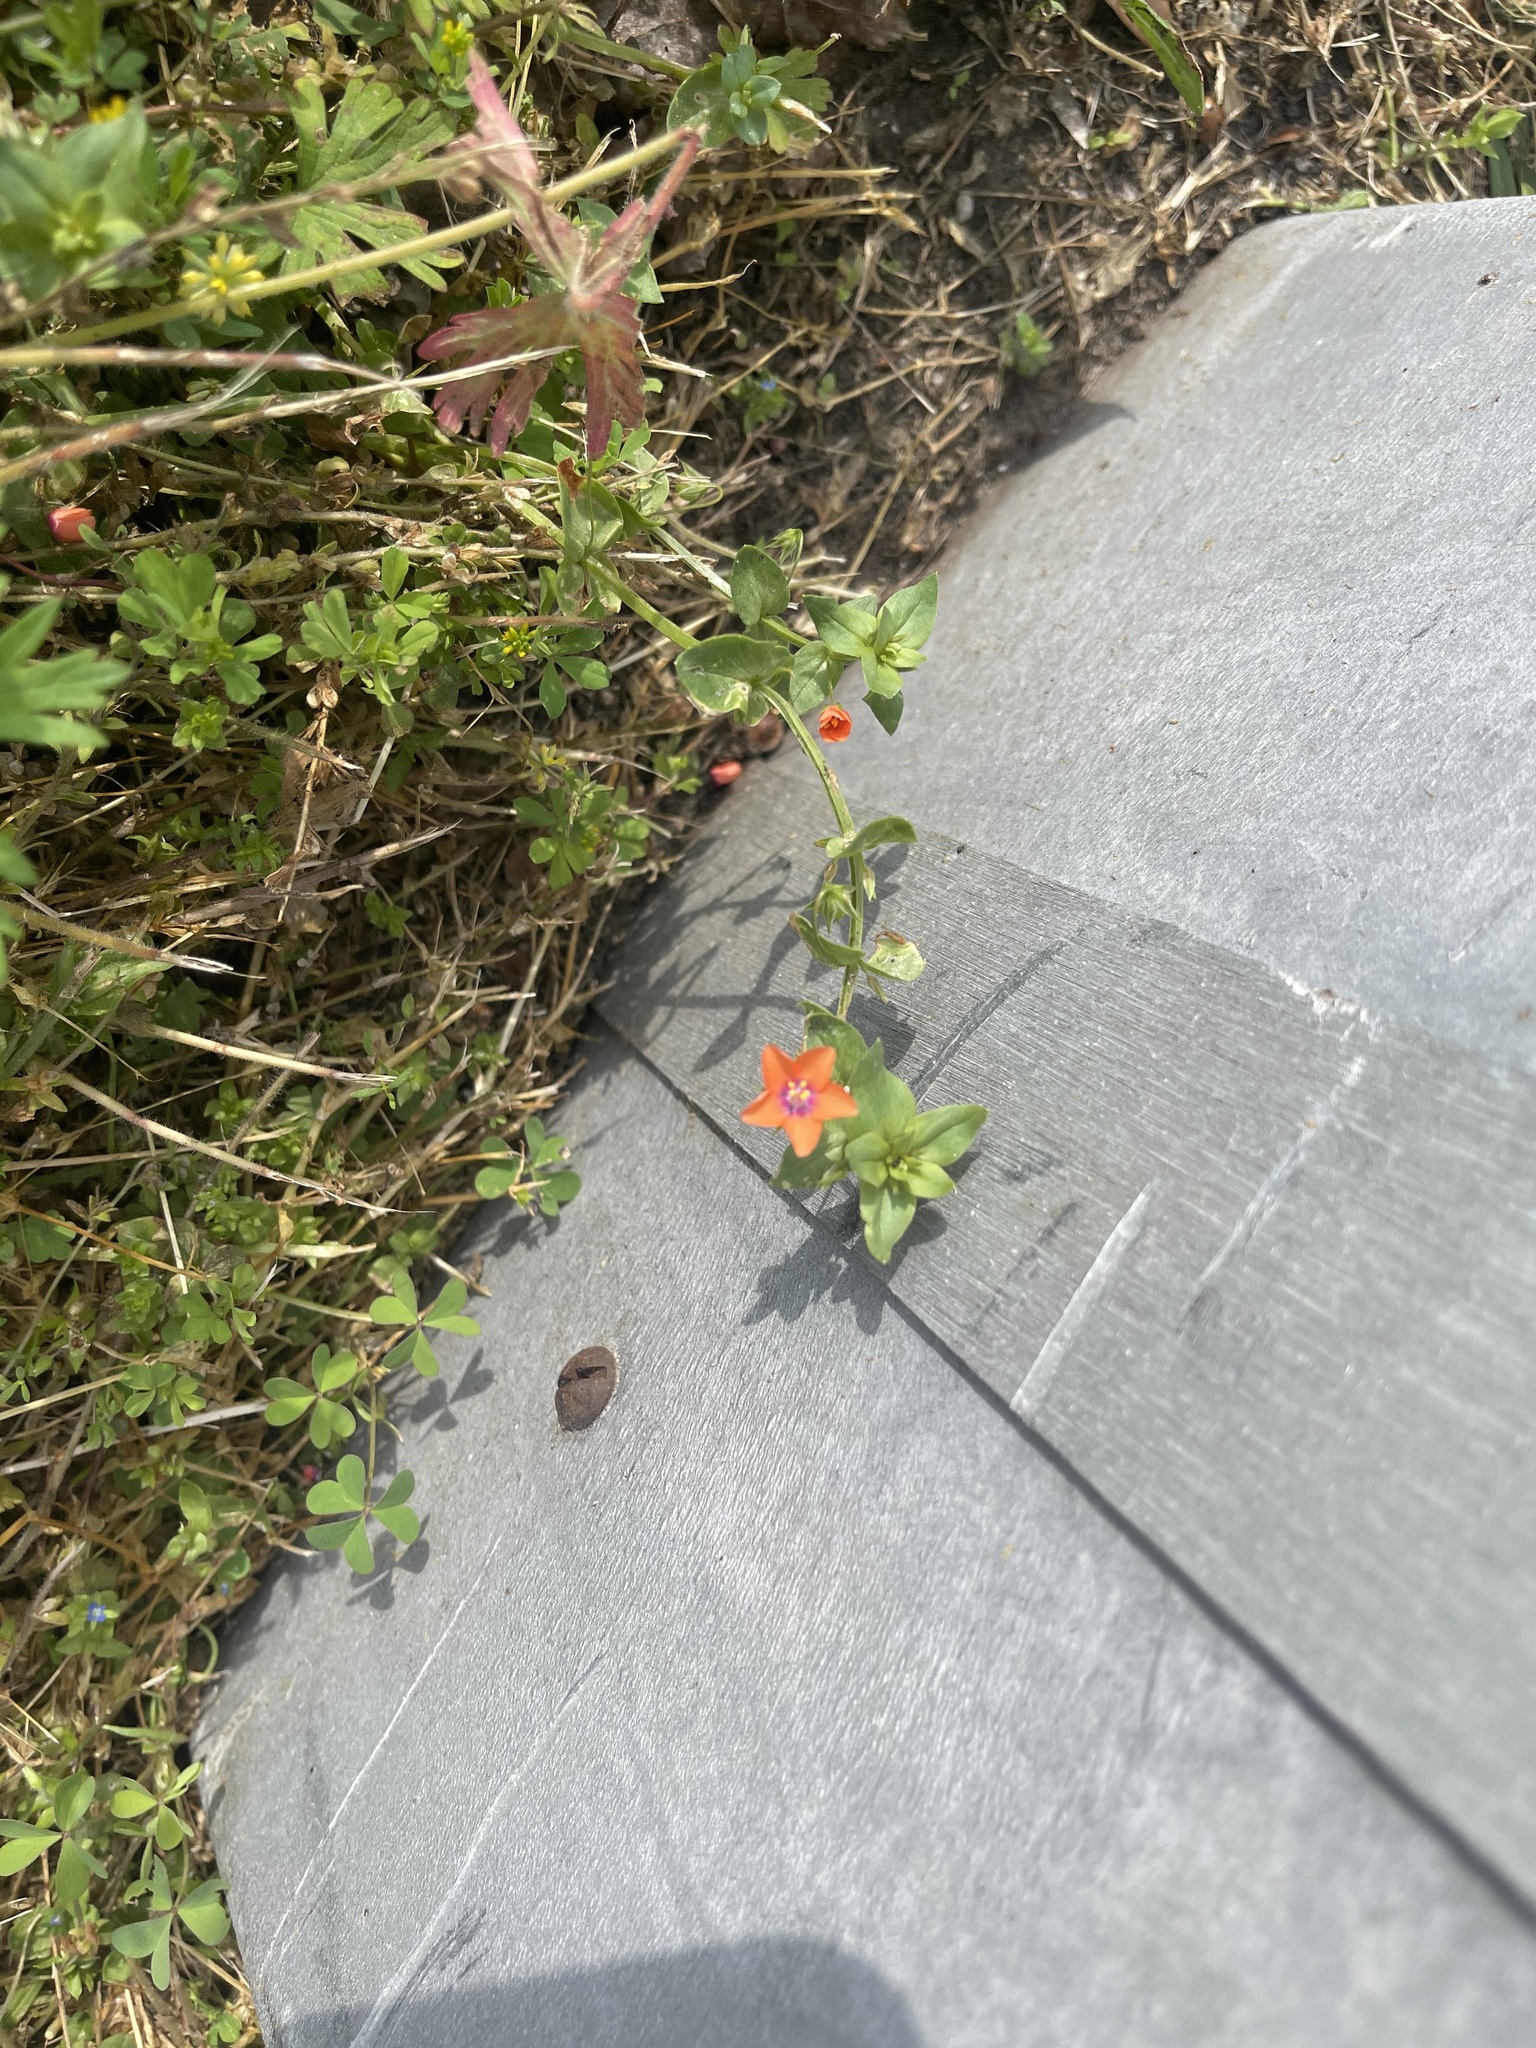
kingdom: Plantae
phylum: Tracheophyta
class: Magnoliopsida
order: Ericales
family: Primulaceae
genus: Lysimachia
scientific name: Lysimachia arvensis
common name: Scarlet pimpernel
